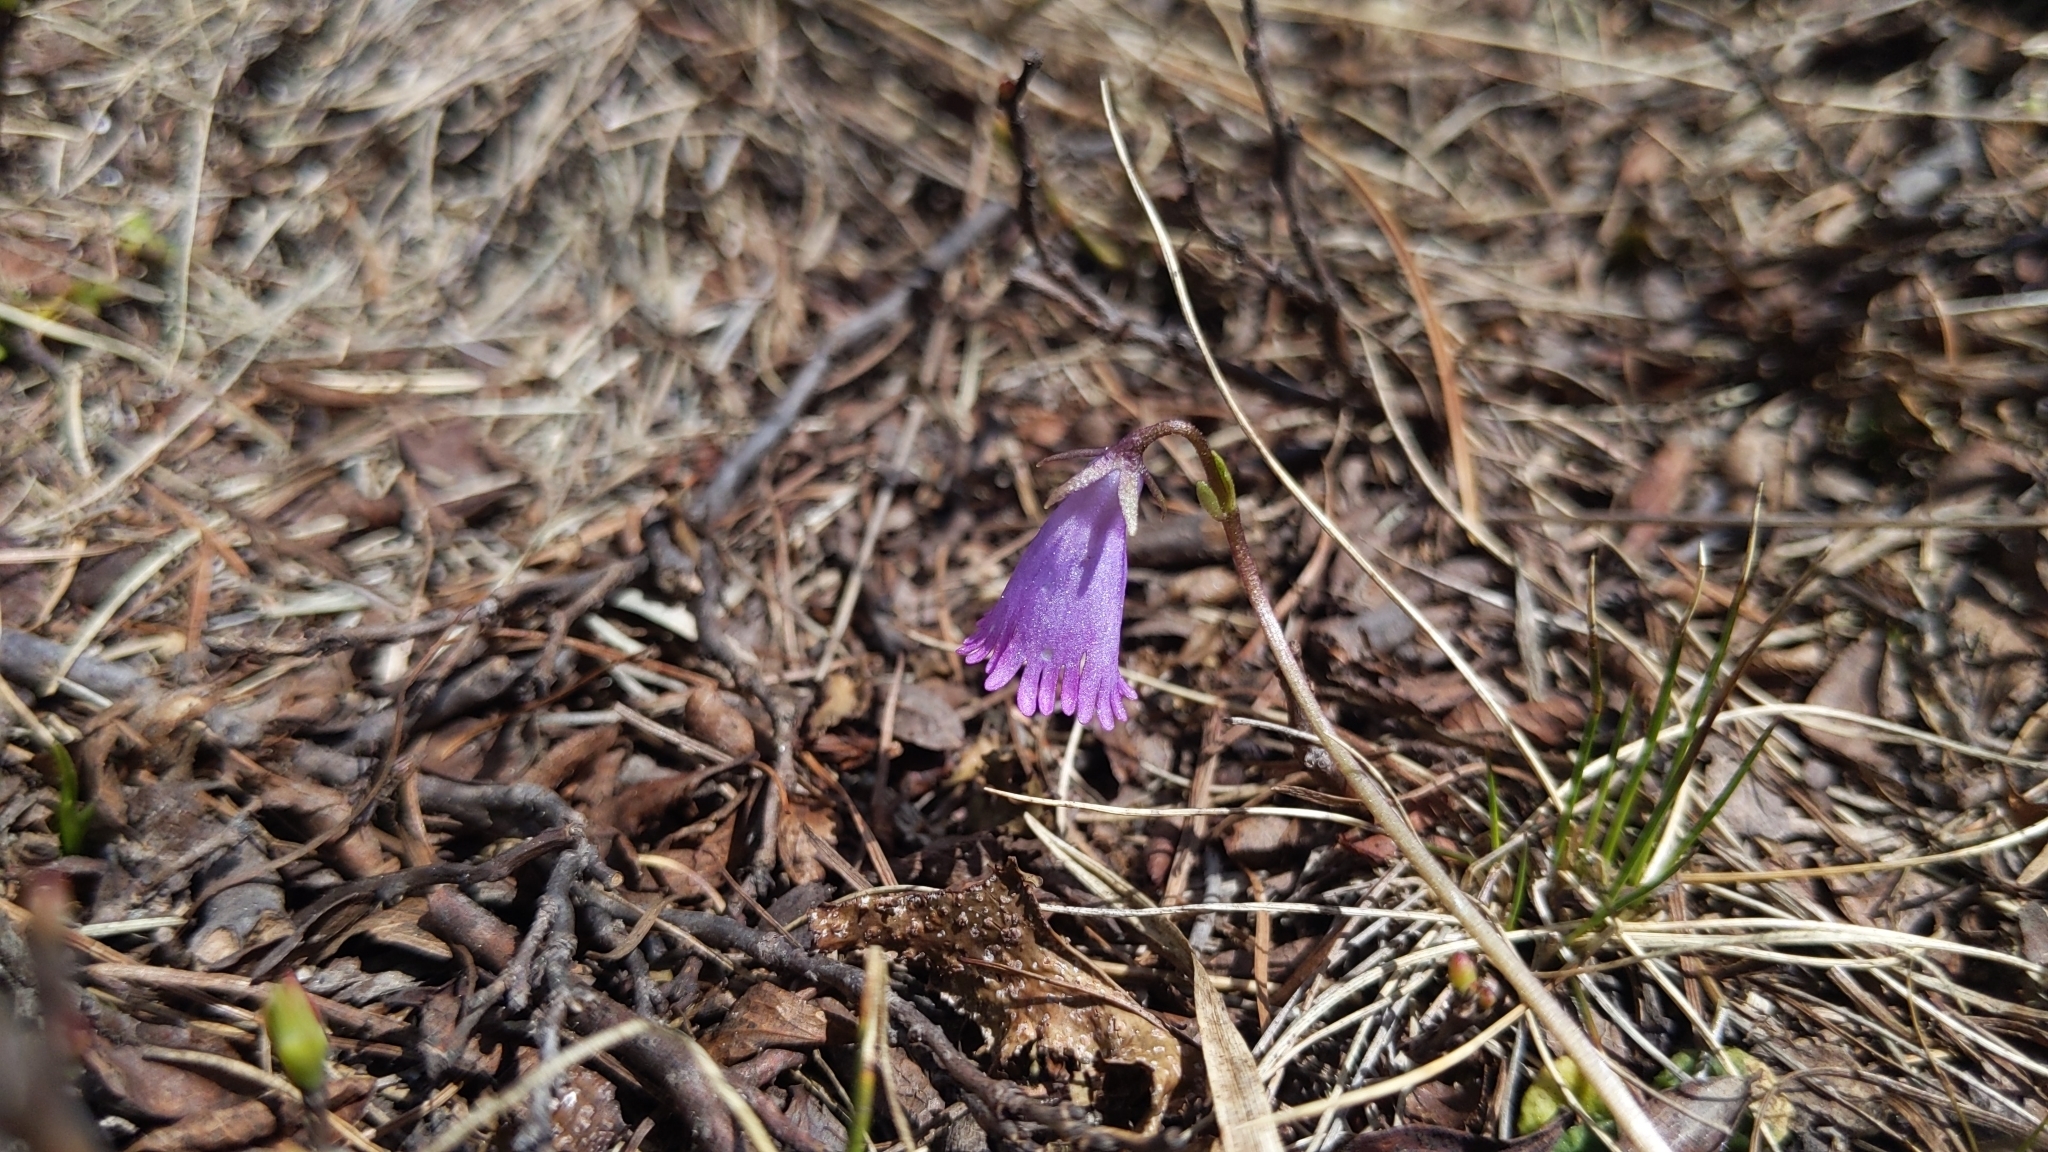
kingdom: Plantae
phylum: Tracheophyta
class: Magnoliopsida
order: Ericales
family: Primulaceae
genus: Soldanella
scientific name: Soldanella pusilla
